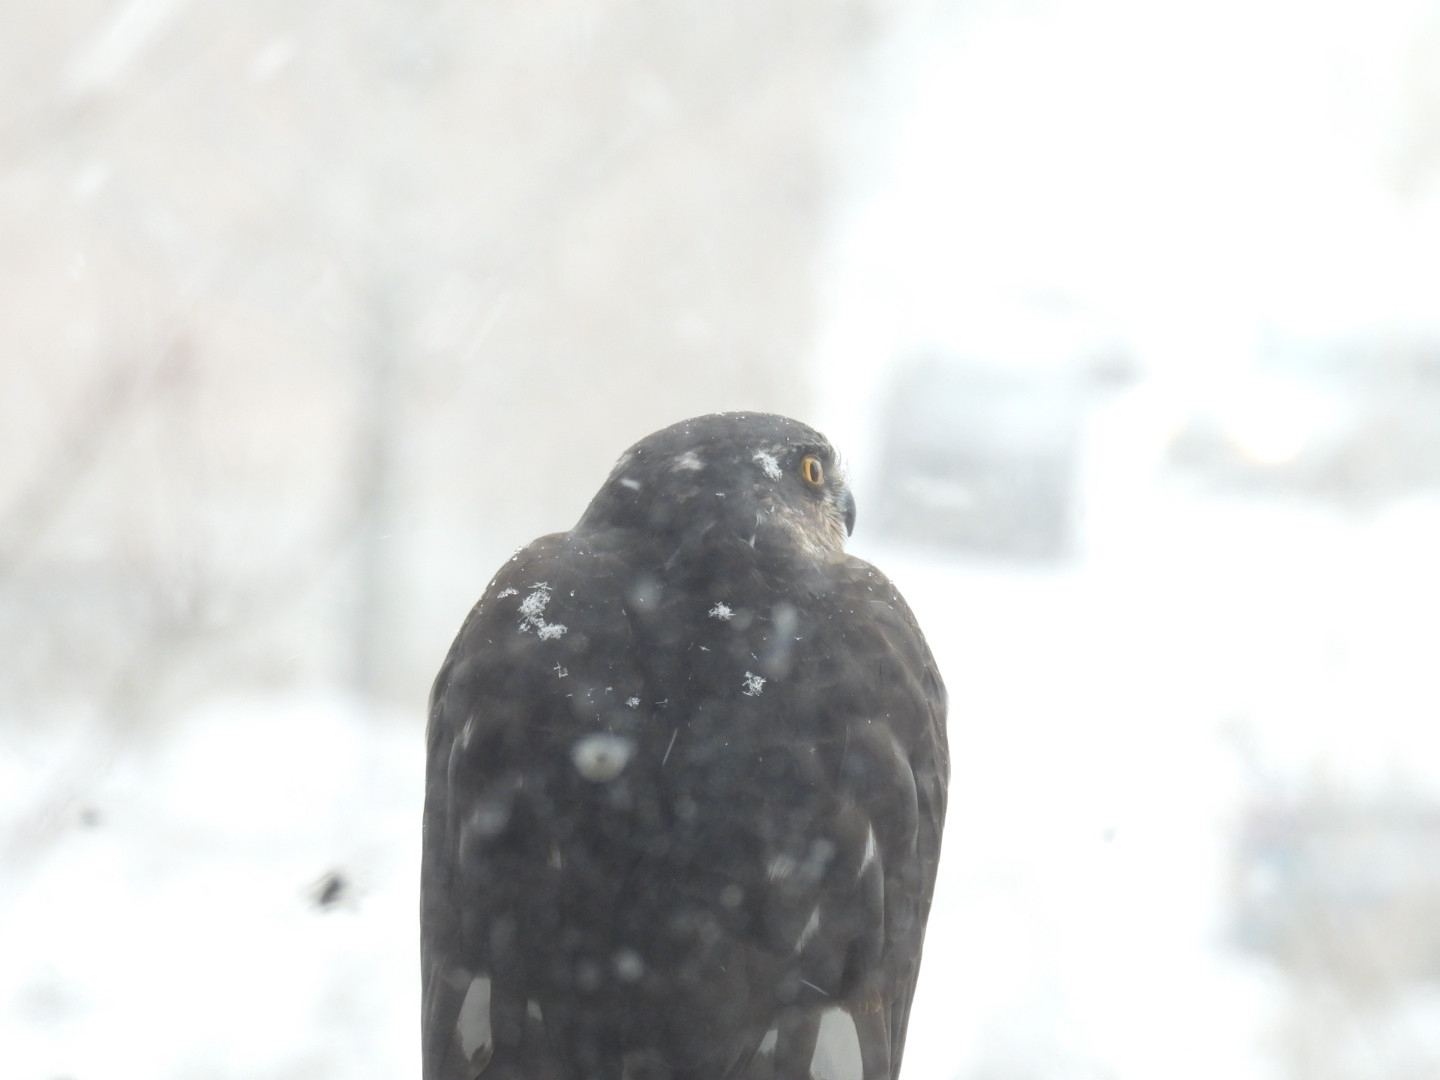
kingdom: Animalia
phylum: Chordata
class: Aves
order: Accipitriformes
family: Accipitridae
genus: Accipiter
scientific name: Accipiter nisus
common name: Eurasian sparrowhawk
